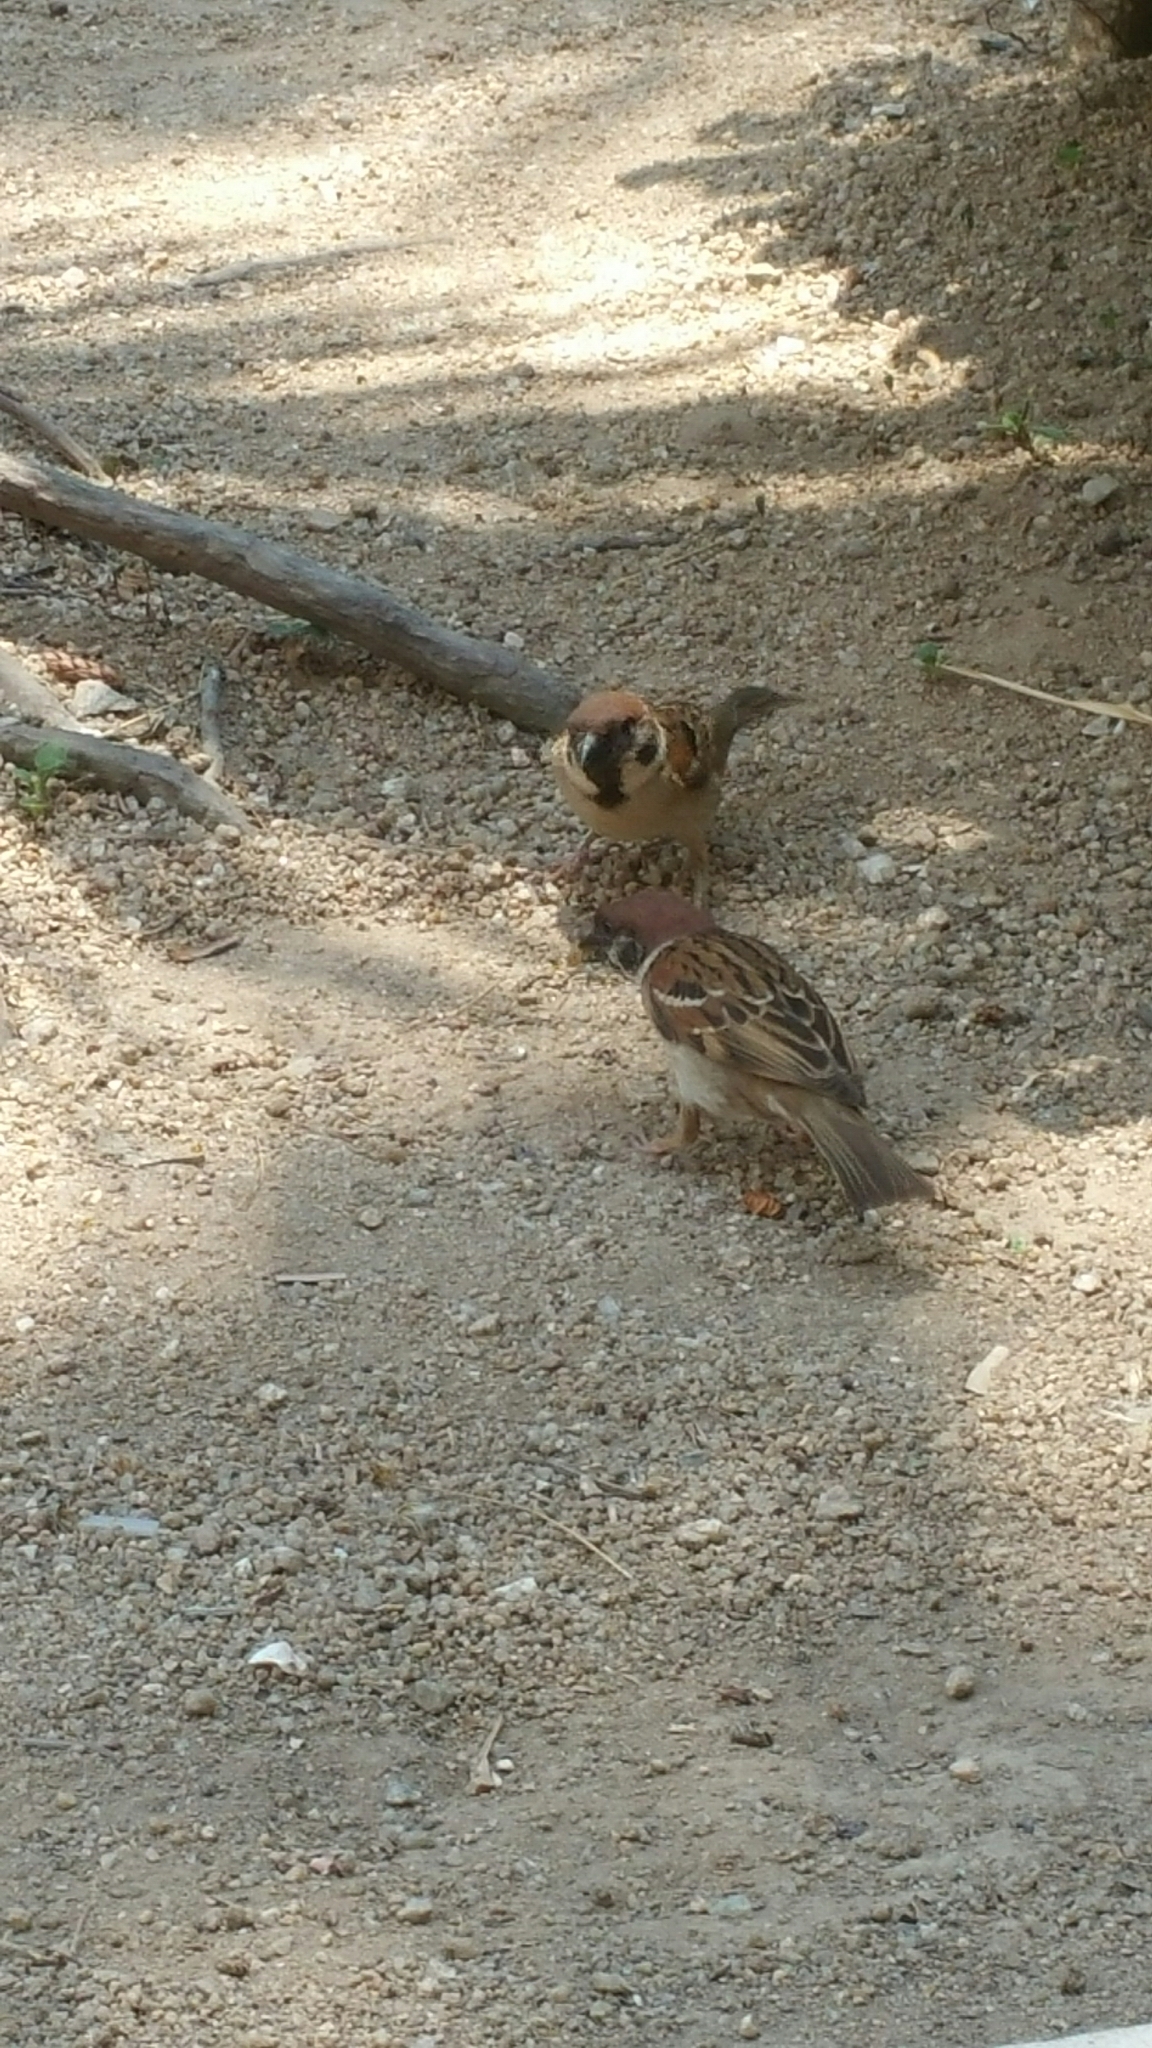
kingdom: Animalia
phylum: Chordata
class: Aves
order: Passeriformes
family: Passeridae
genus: Passer
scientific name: Passer montanus
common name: Eurasian tree sparrow
